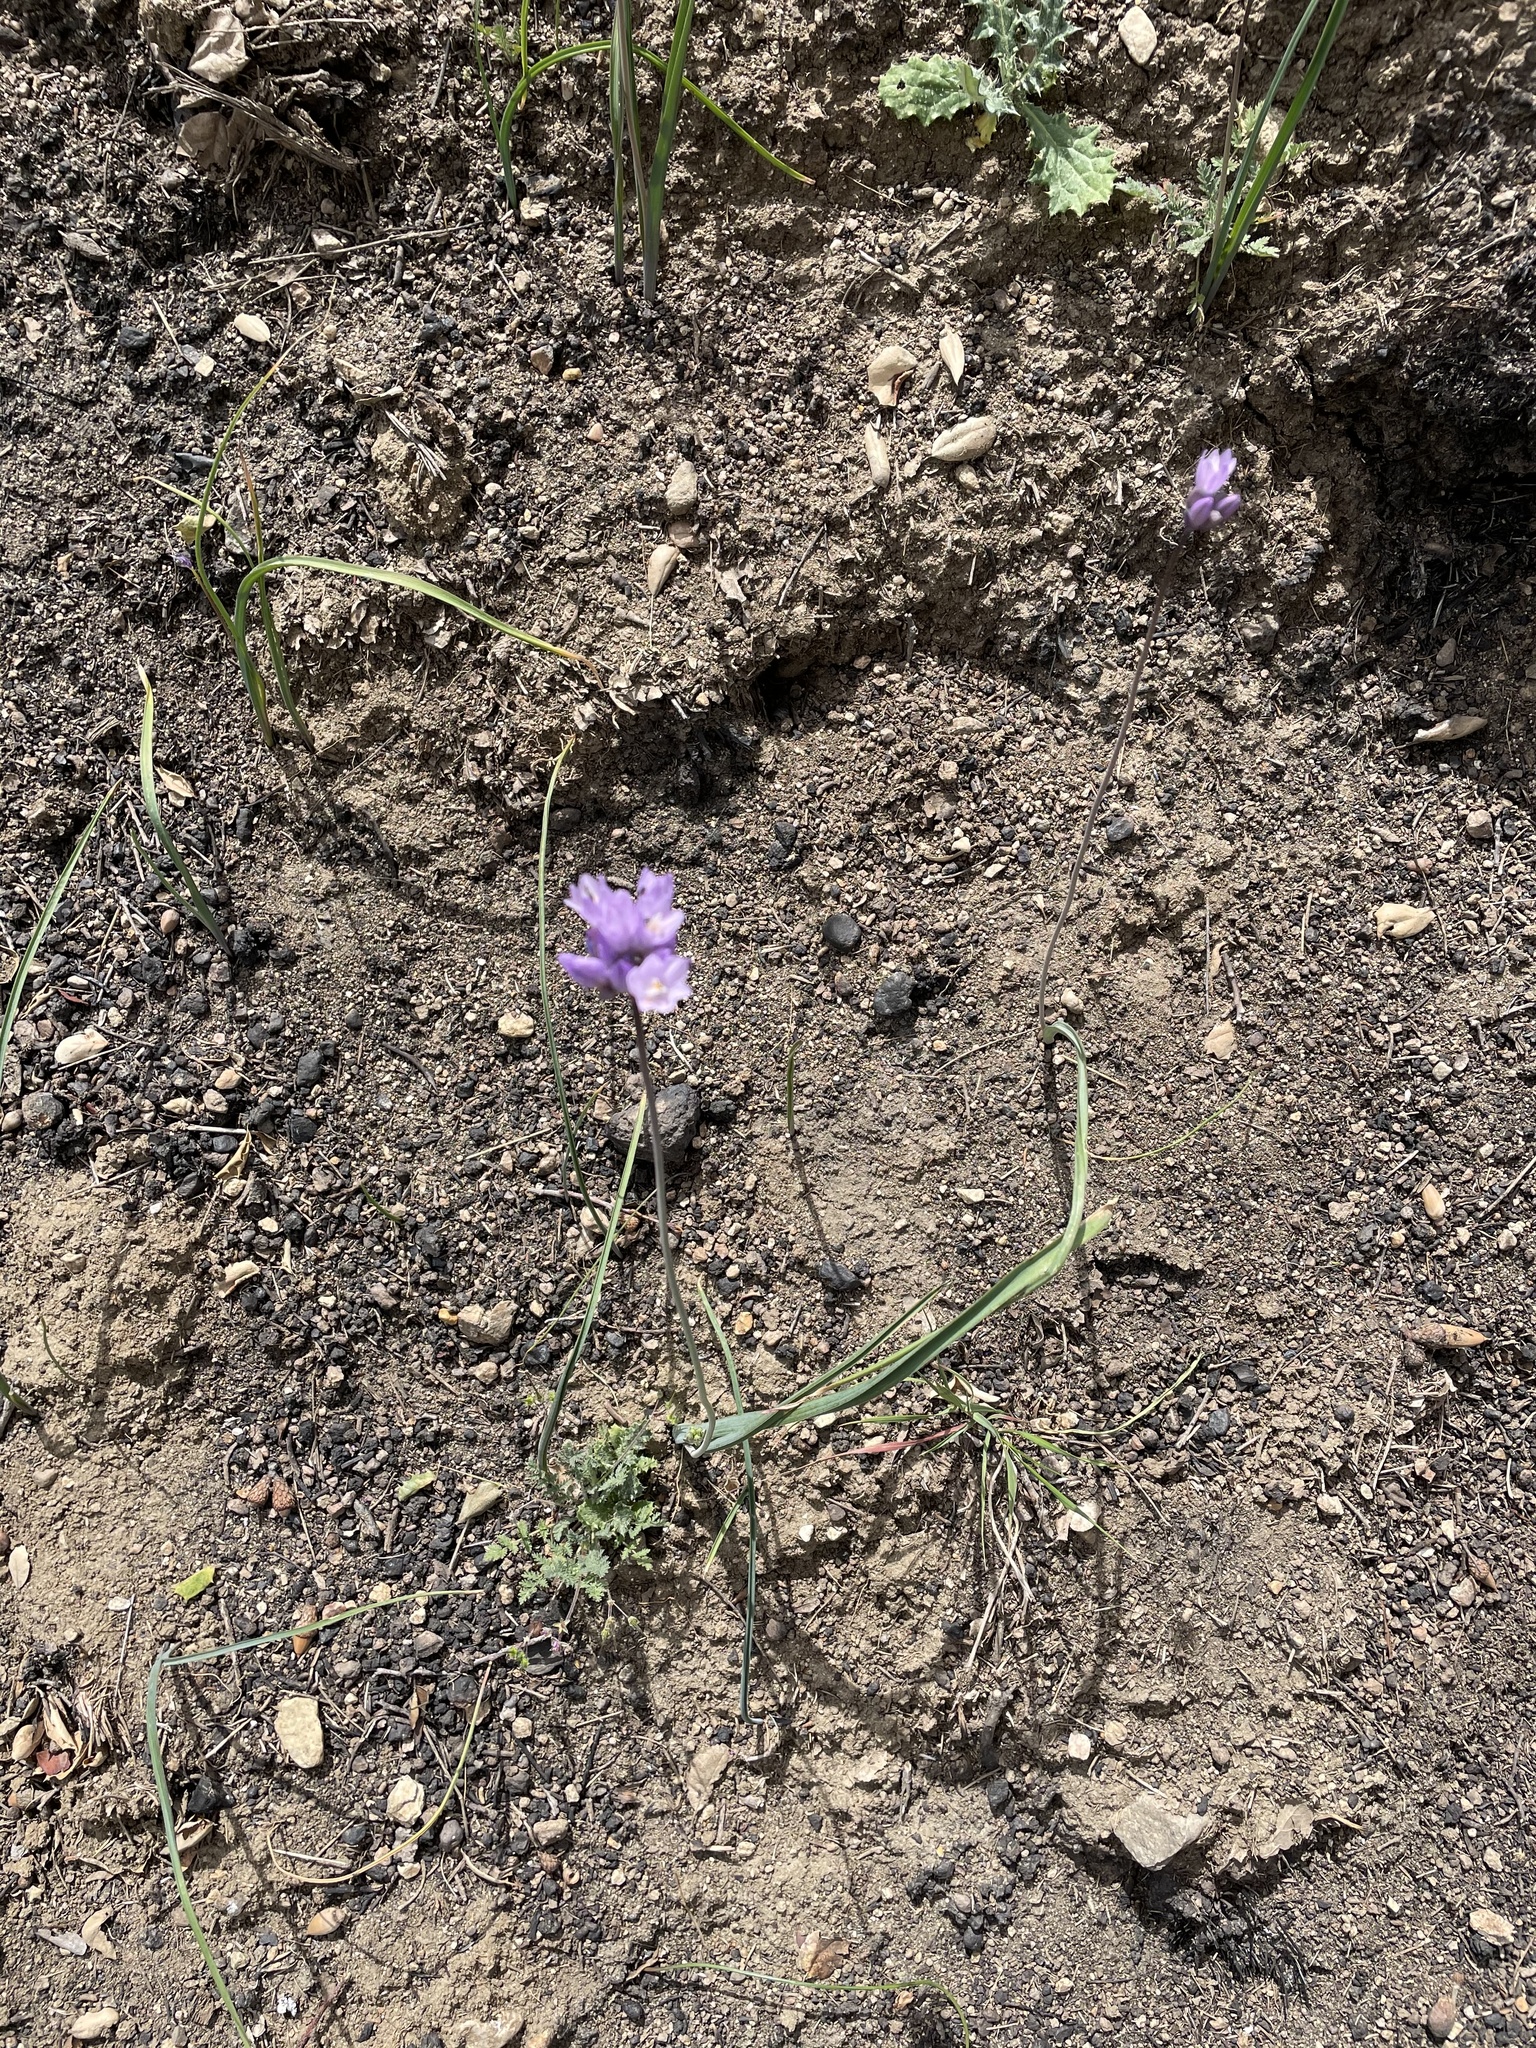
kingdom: Plantae
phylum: Tracheophyta
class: Liliopsida
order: Asparagales
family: Asparagaceae
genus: Dipterostemon
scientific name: Dipterostemon capitatus
